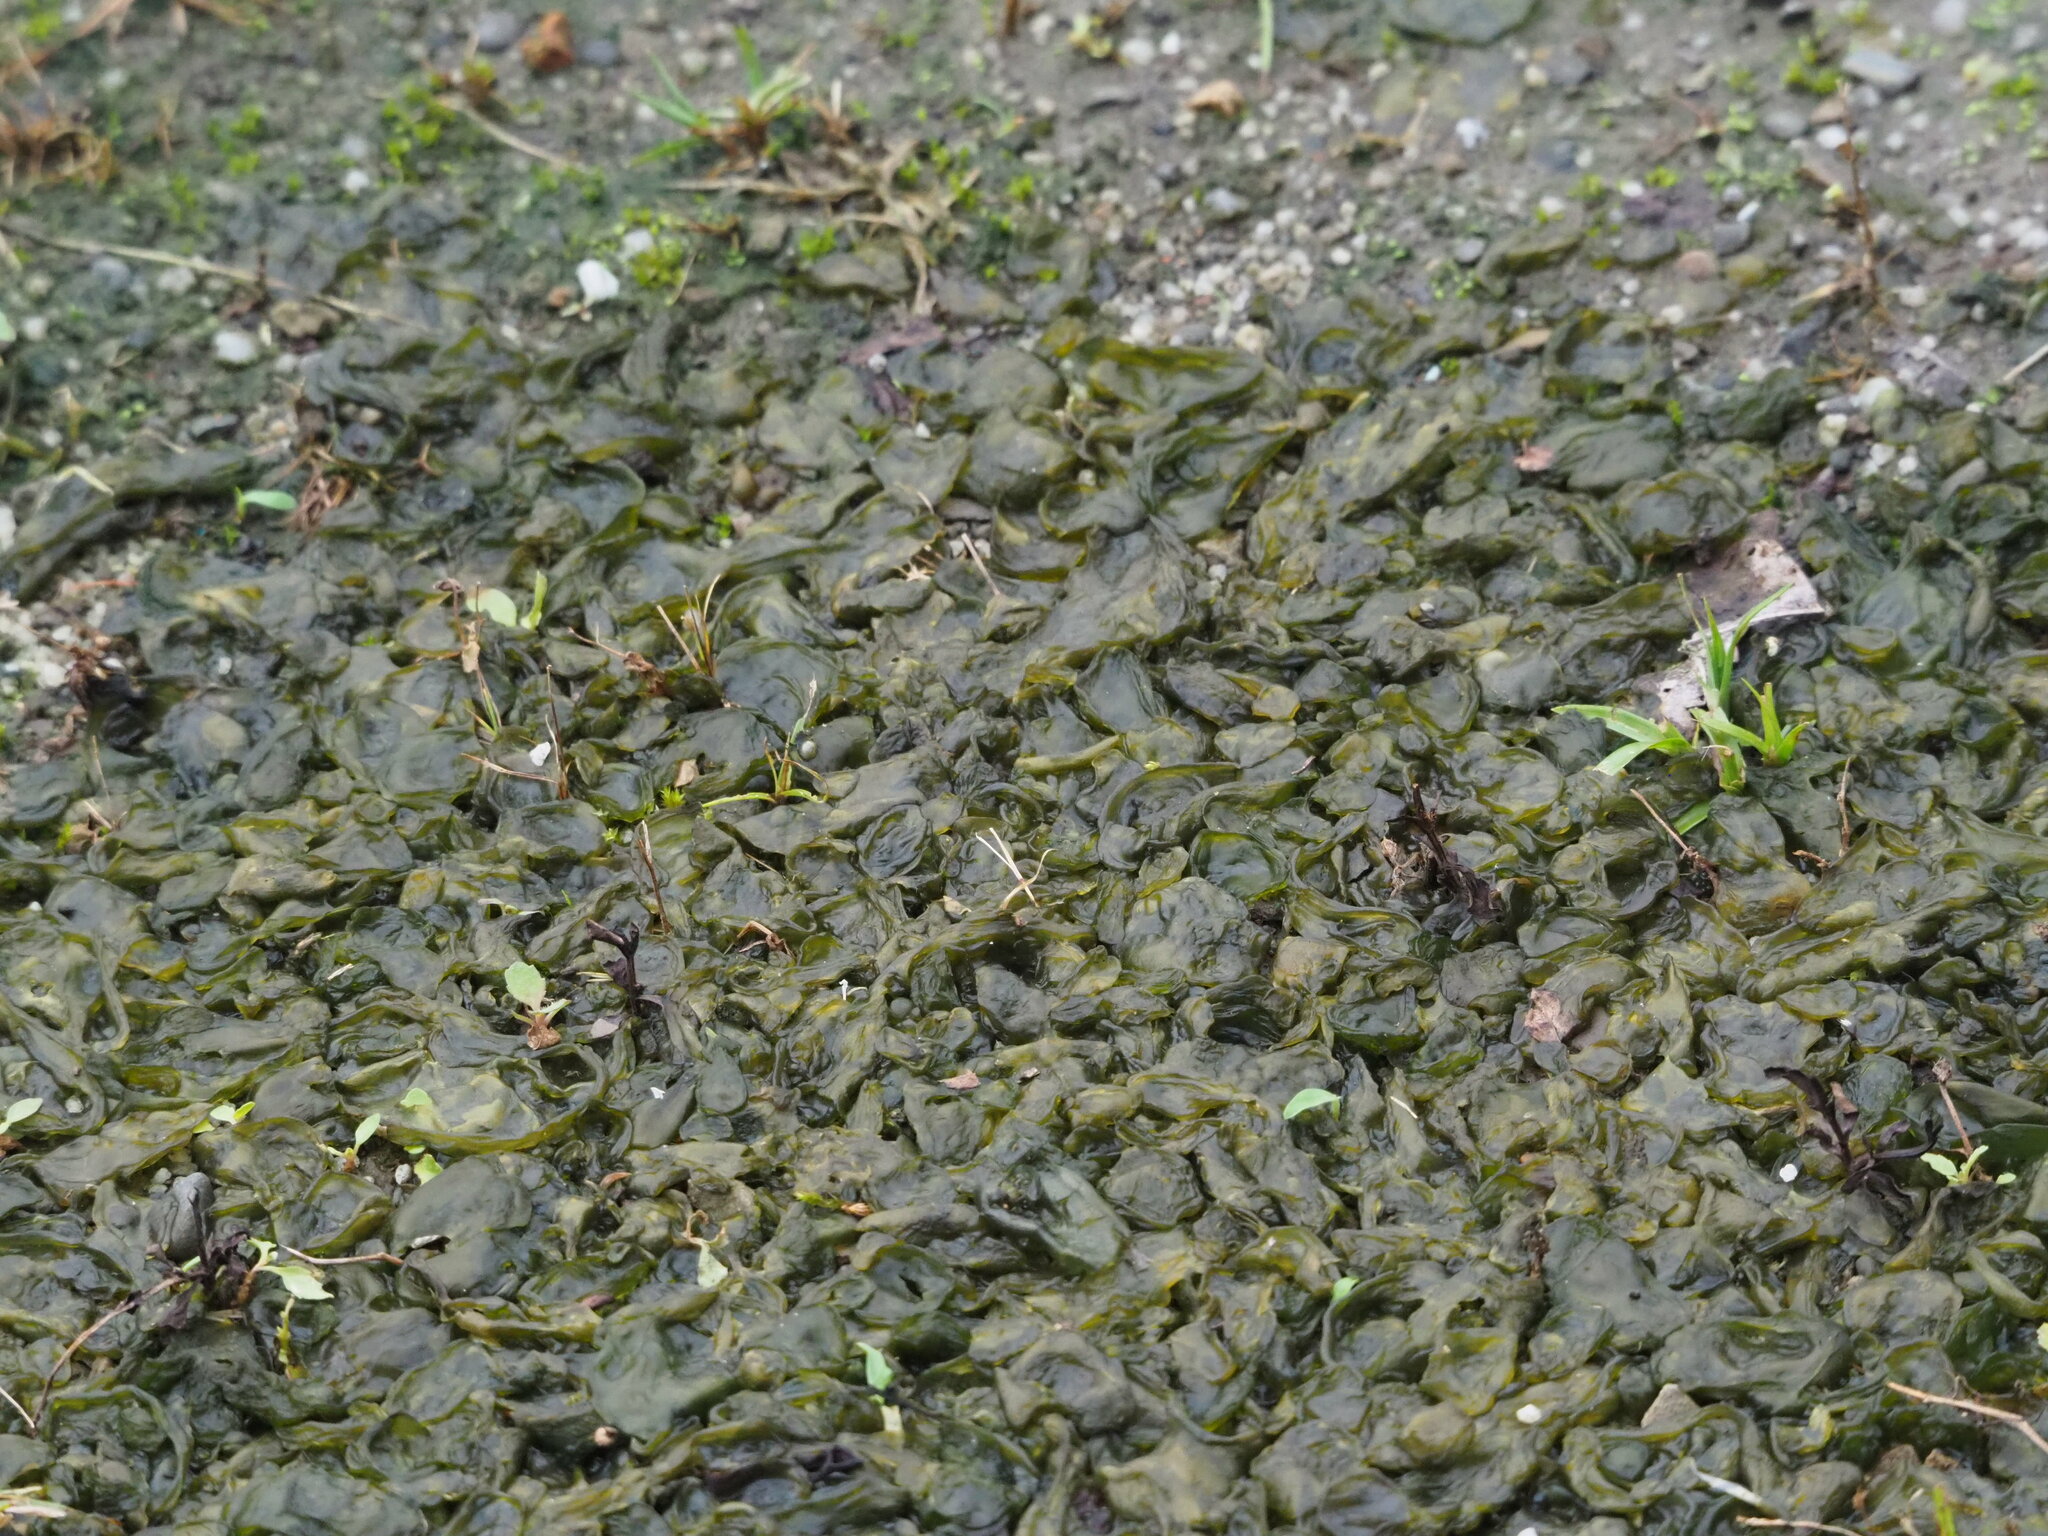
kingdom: Bacteria
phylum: Cyanobacteria
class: Cyanobacteriia
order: Cyanobacteriales
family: Nostocaceae
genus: Nostoc
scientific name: Nostoc commune
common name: Star jelly
